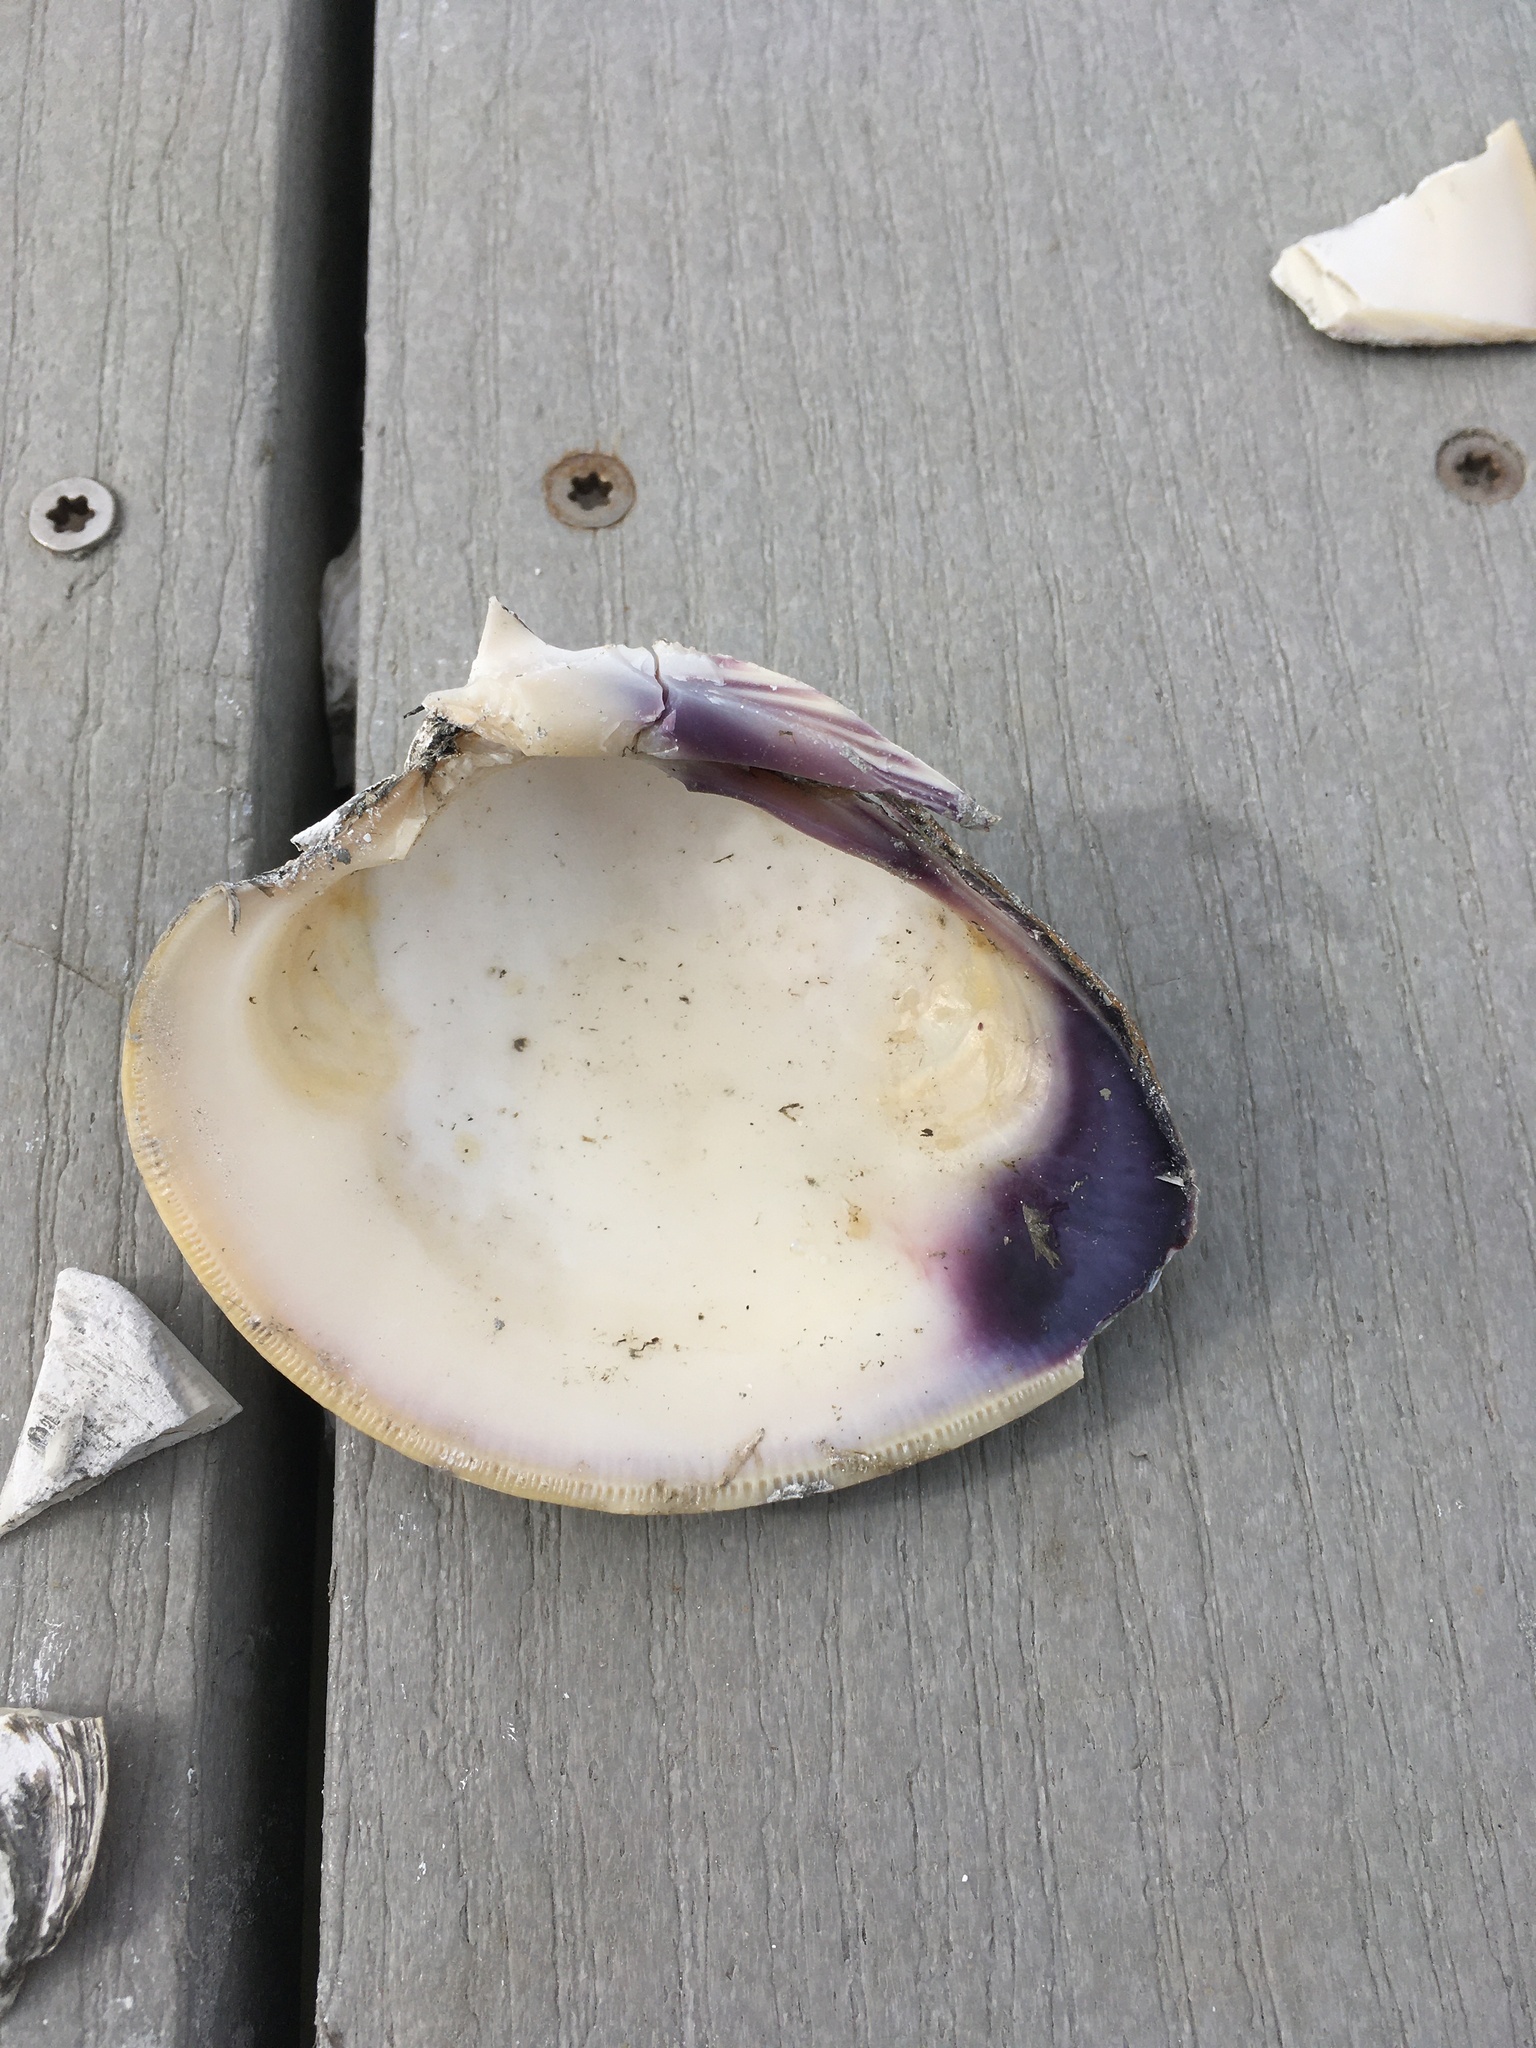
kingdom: Animalia
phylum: Mollusca
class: Bivalvia
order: Venerida
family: Veneridae
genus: Mercenaria
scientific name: Mercenaria mercenaria
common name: American hard-shelled clam
